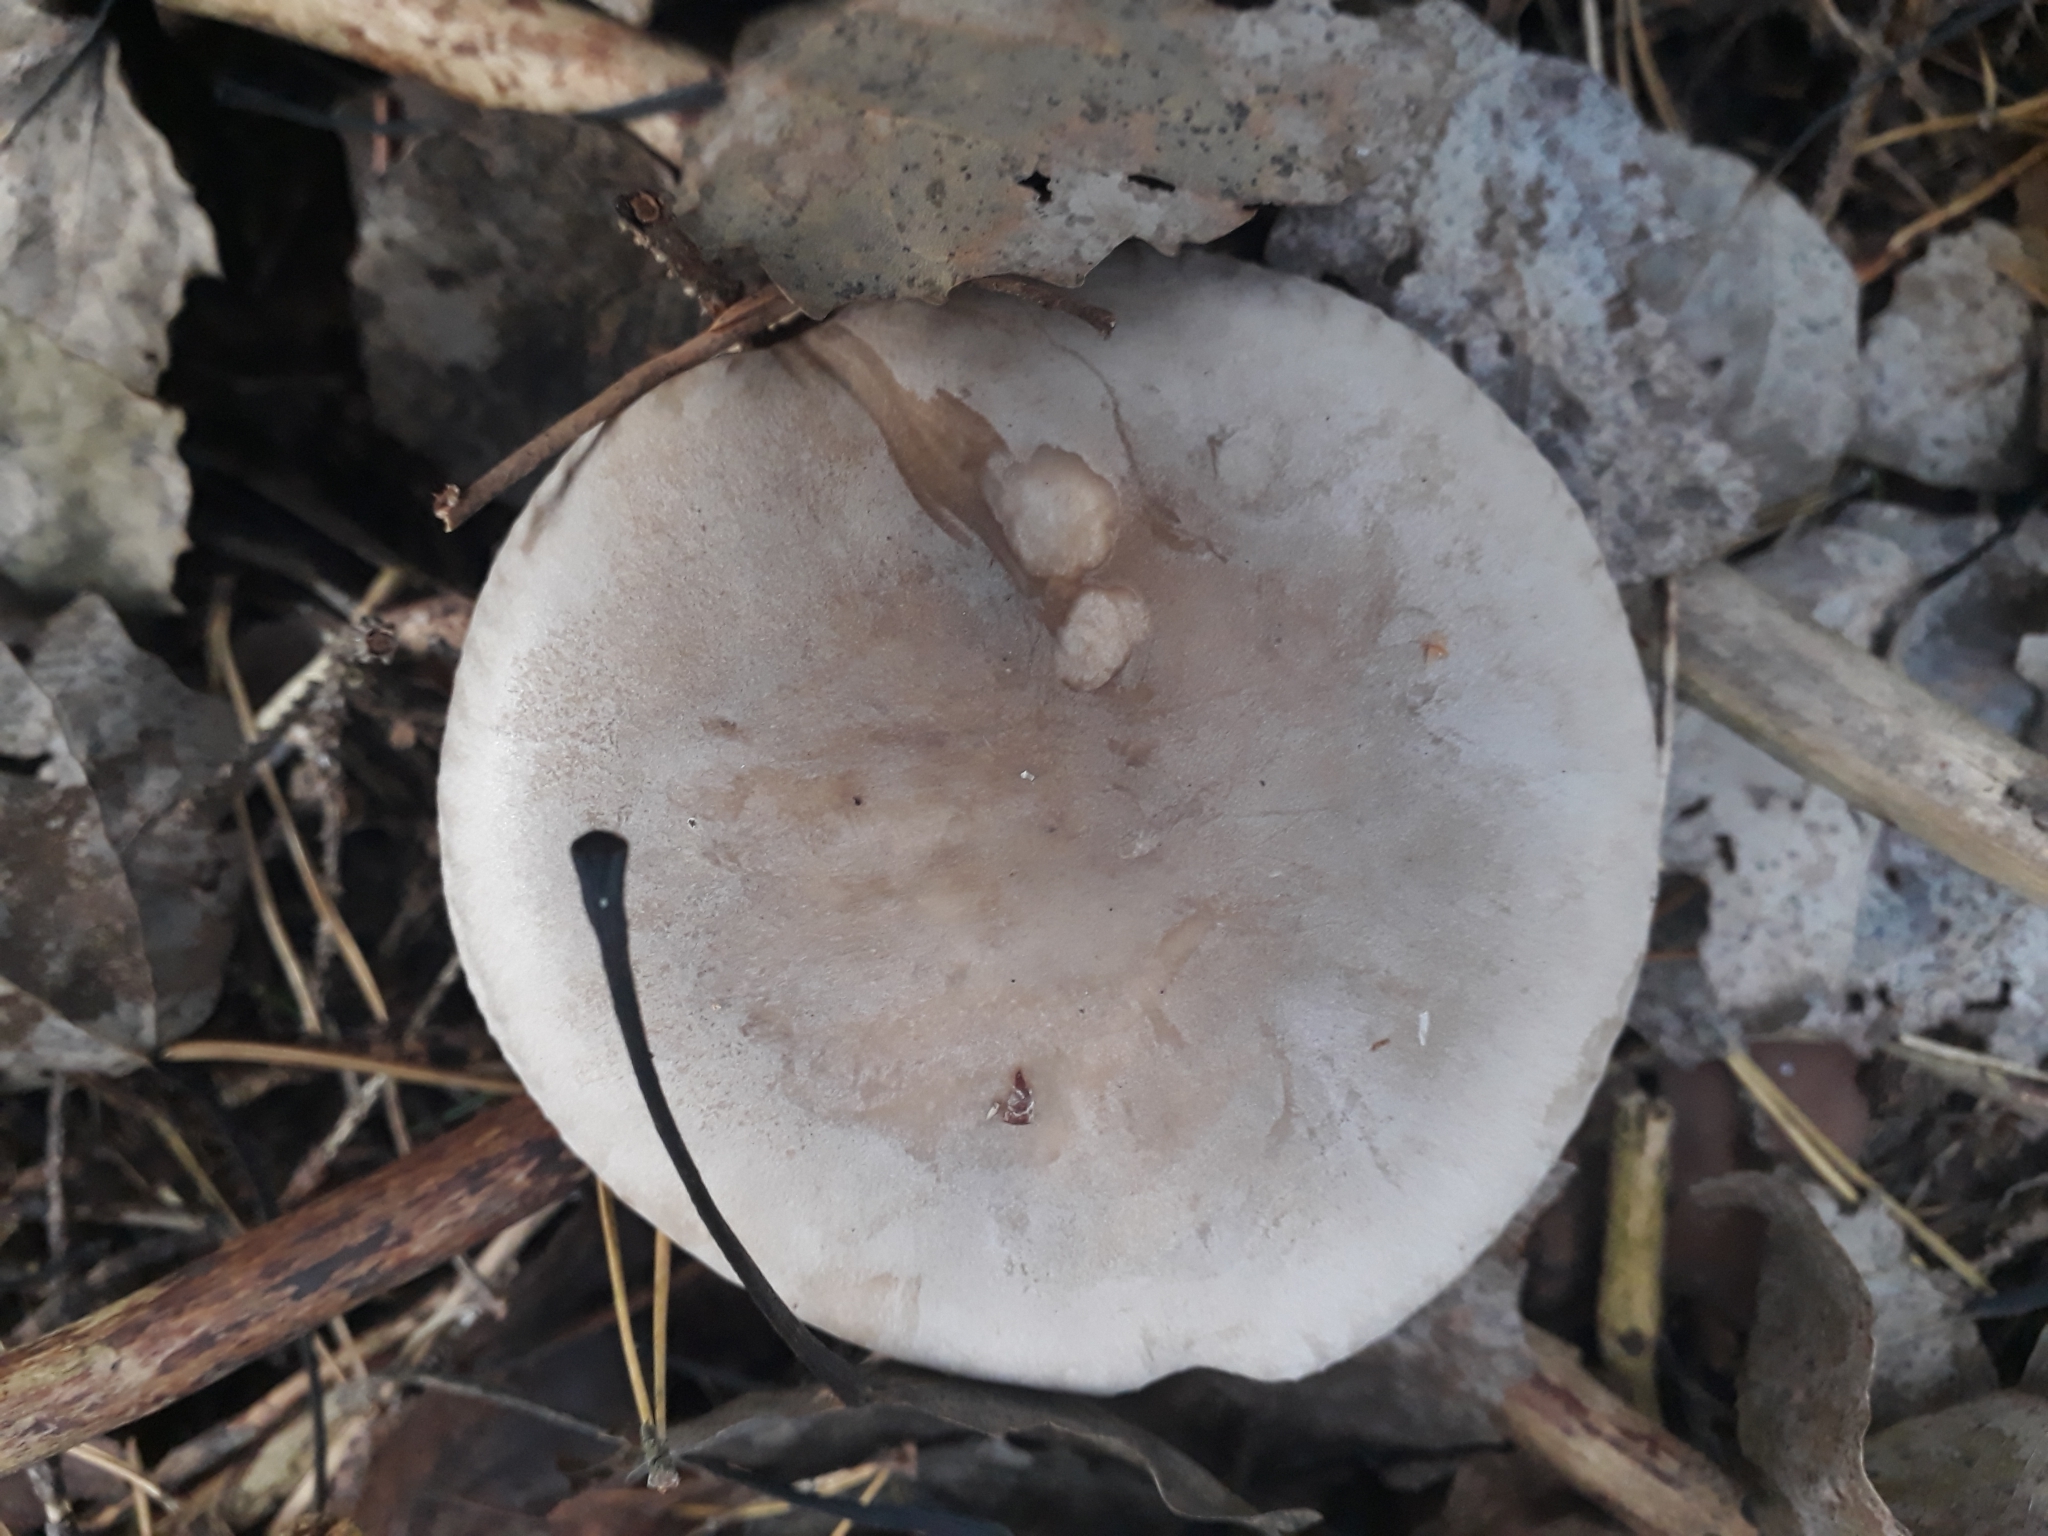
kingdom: Fungi
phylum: Basidiomycota
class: Agaricomycetes
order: Agaricales
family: Tricholomataceae
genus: Clitocybe
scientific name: Clitocybe nebularis
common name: Clouded agaric
